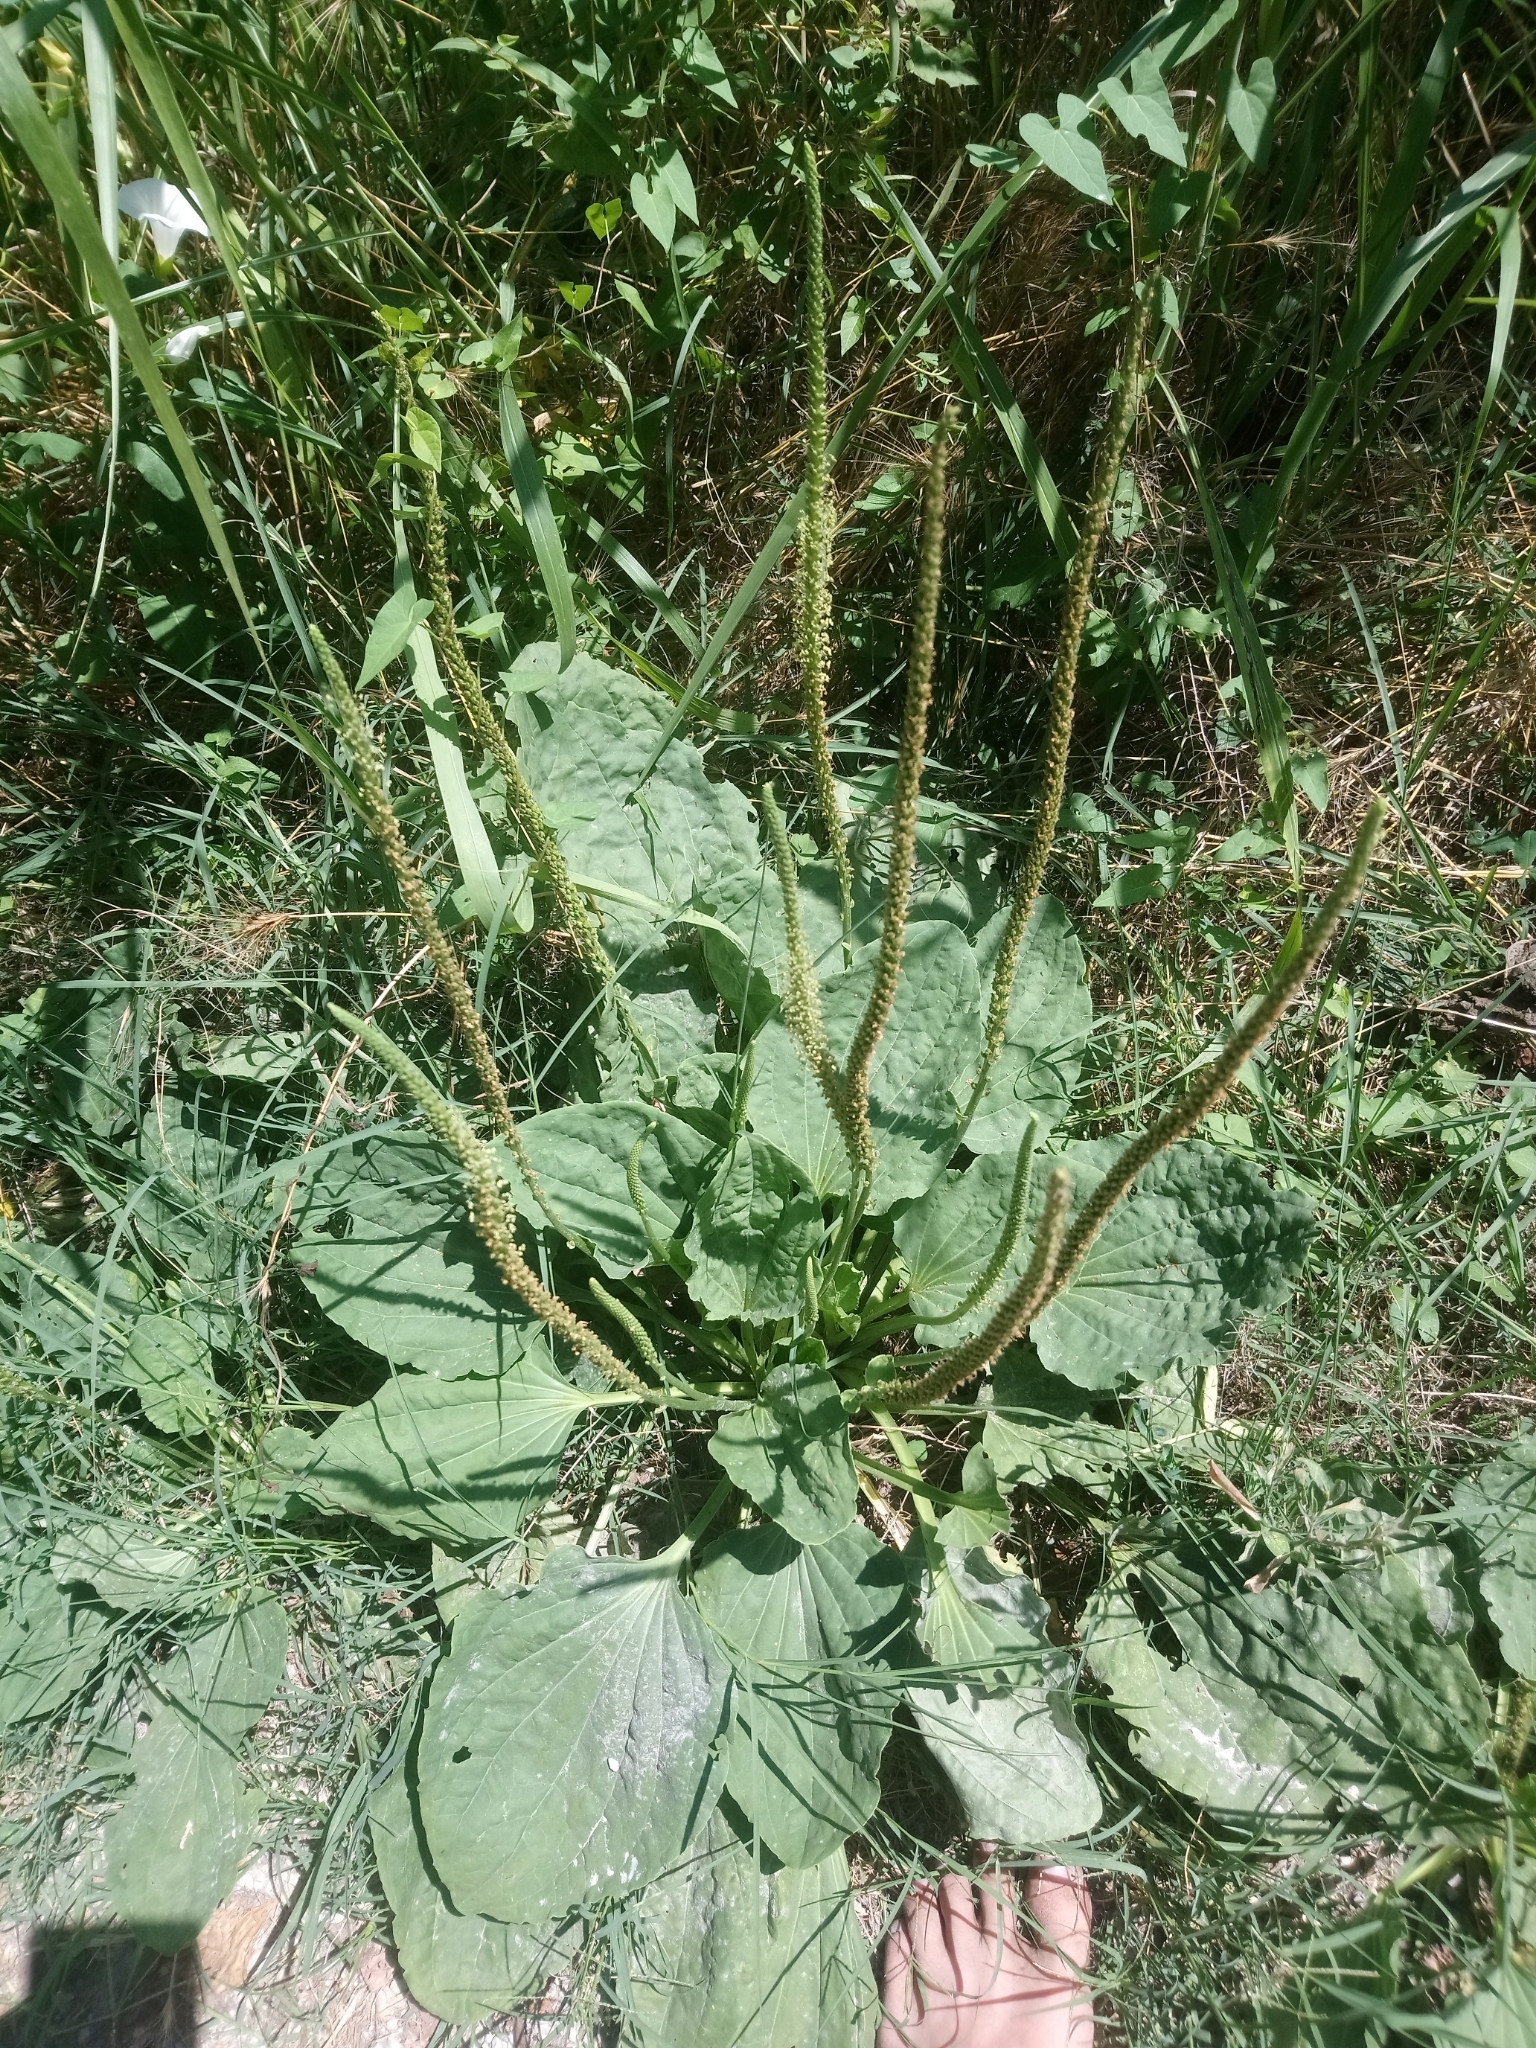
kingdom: Plantae
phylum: Tracheophyta
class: Magnoliopsida
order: Lamiales
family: Plantaginaceae
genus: Plantago
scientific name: Plantago major
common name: Common plantain
